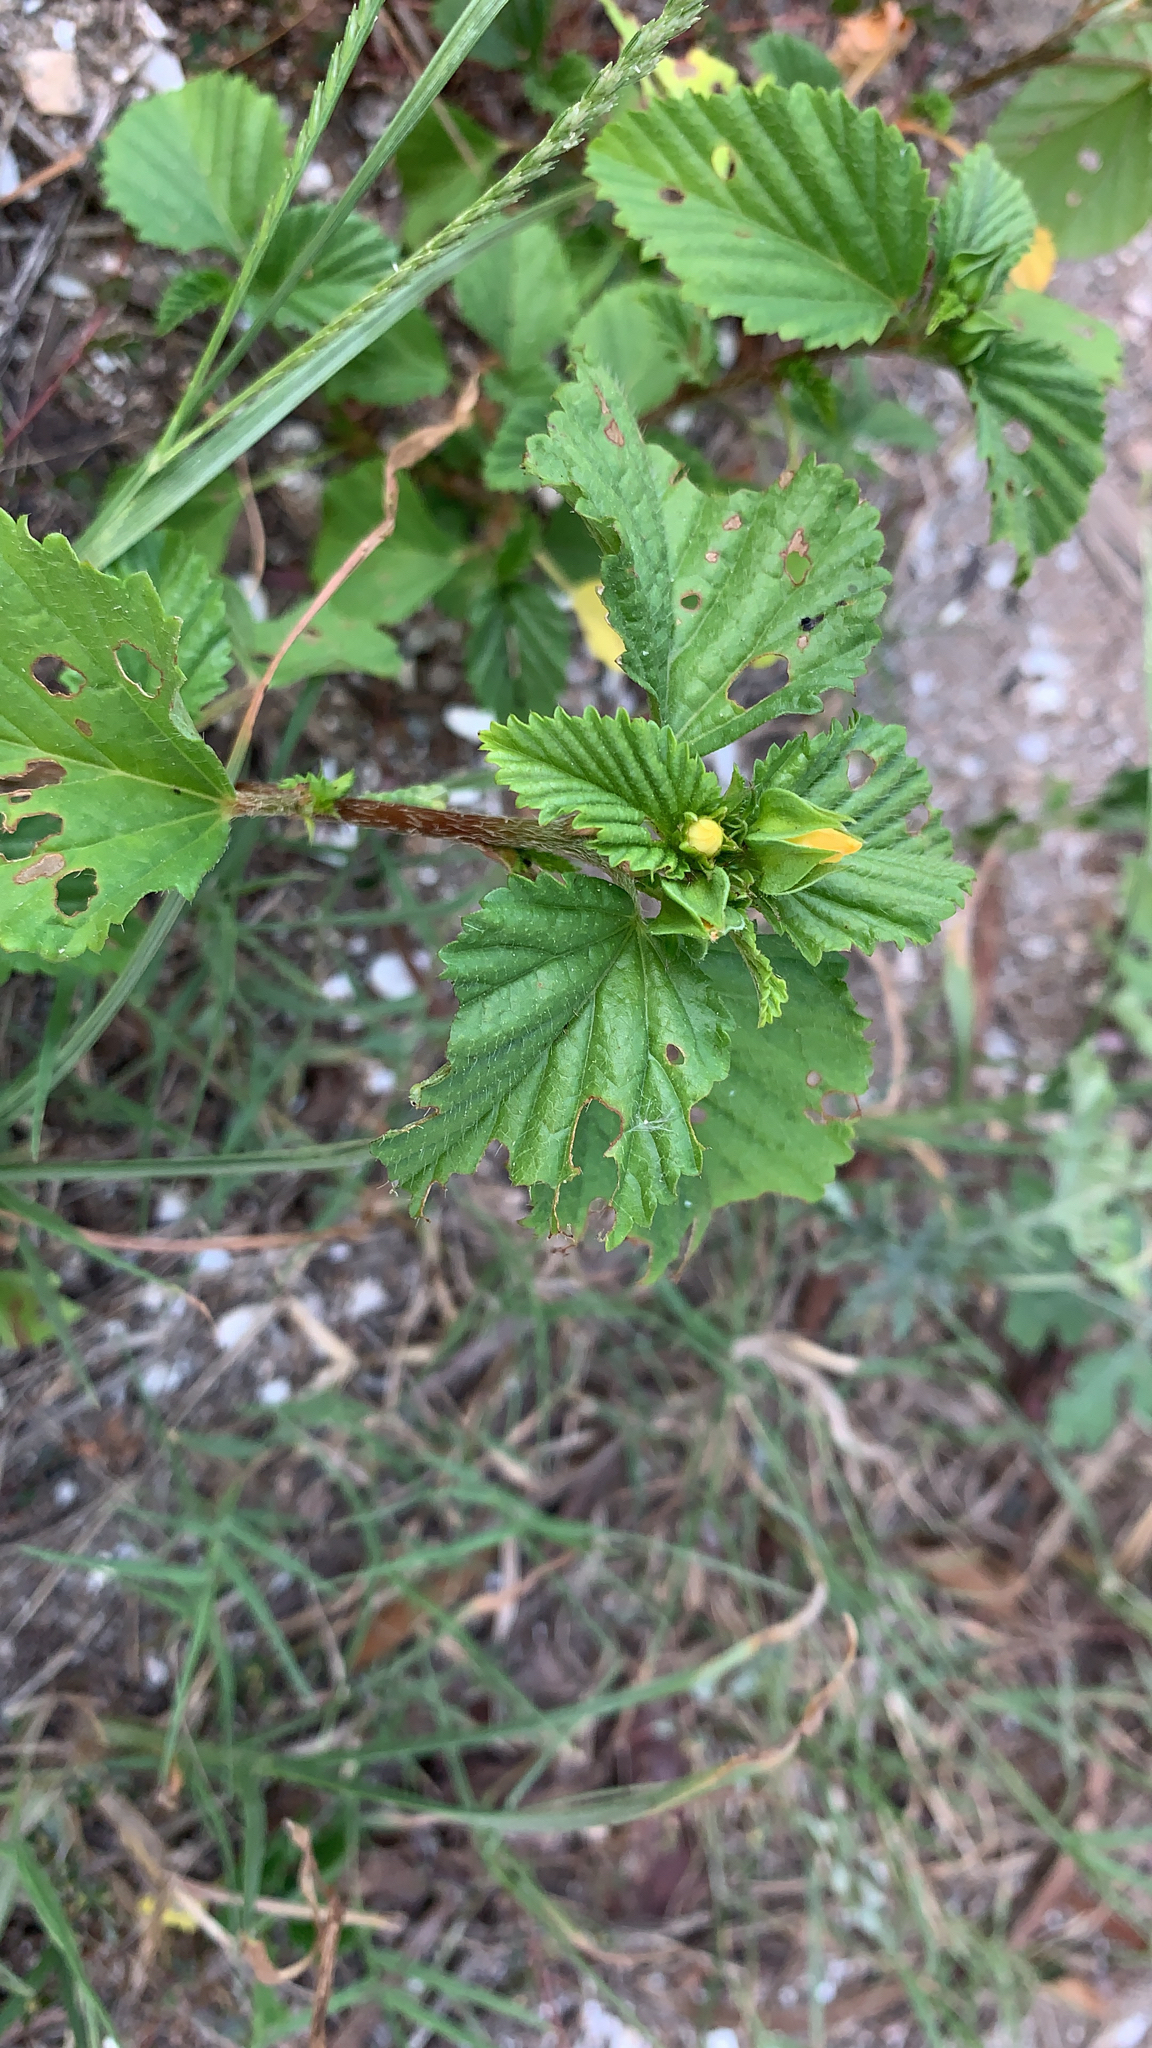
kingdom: Plantae
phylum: Tracheophyta
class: Magnoliopsida
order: Malvales
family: Malvaceae
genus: Malvastrum
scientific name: Malvastrum coromandelianum
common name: Threelobe false mallow
